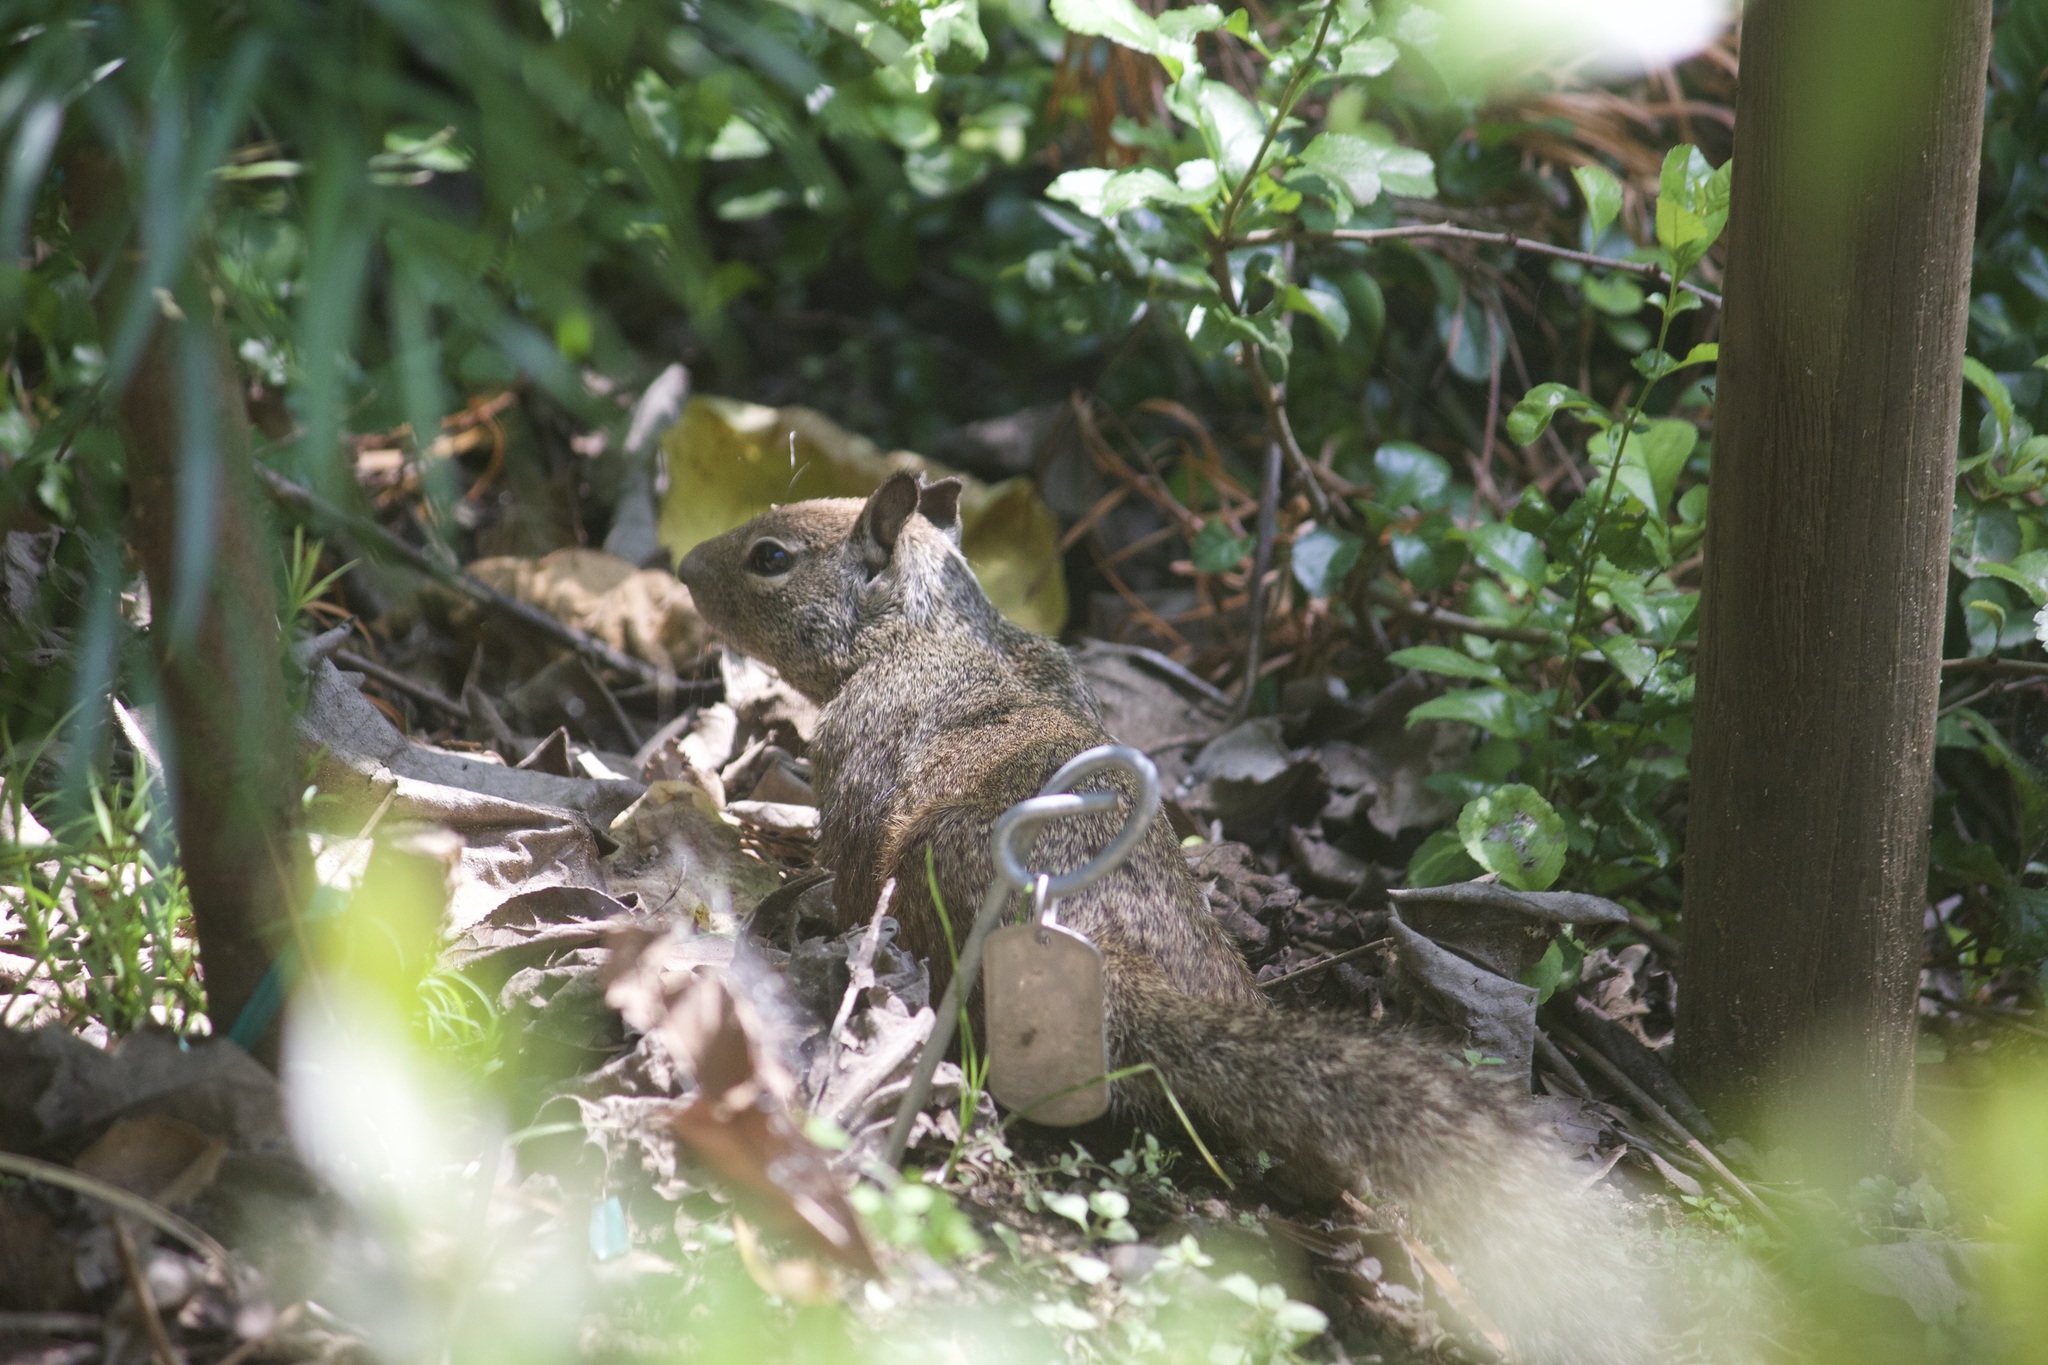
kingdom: Animalia
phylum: Chordata
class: Mammalia
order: Rodentia
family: Sciuridae
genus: Otospermophilus
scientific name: Otospermophilus beecheyi
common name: California ground squirrel
